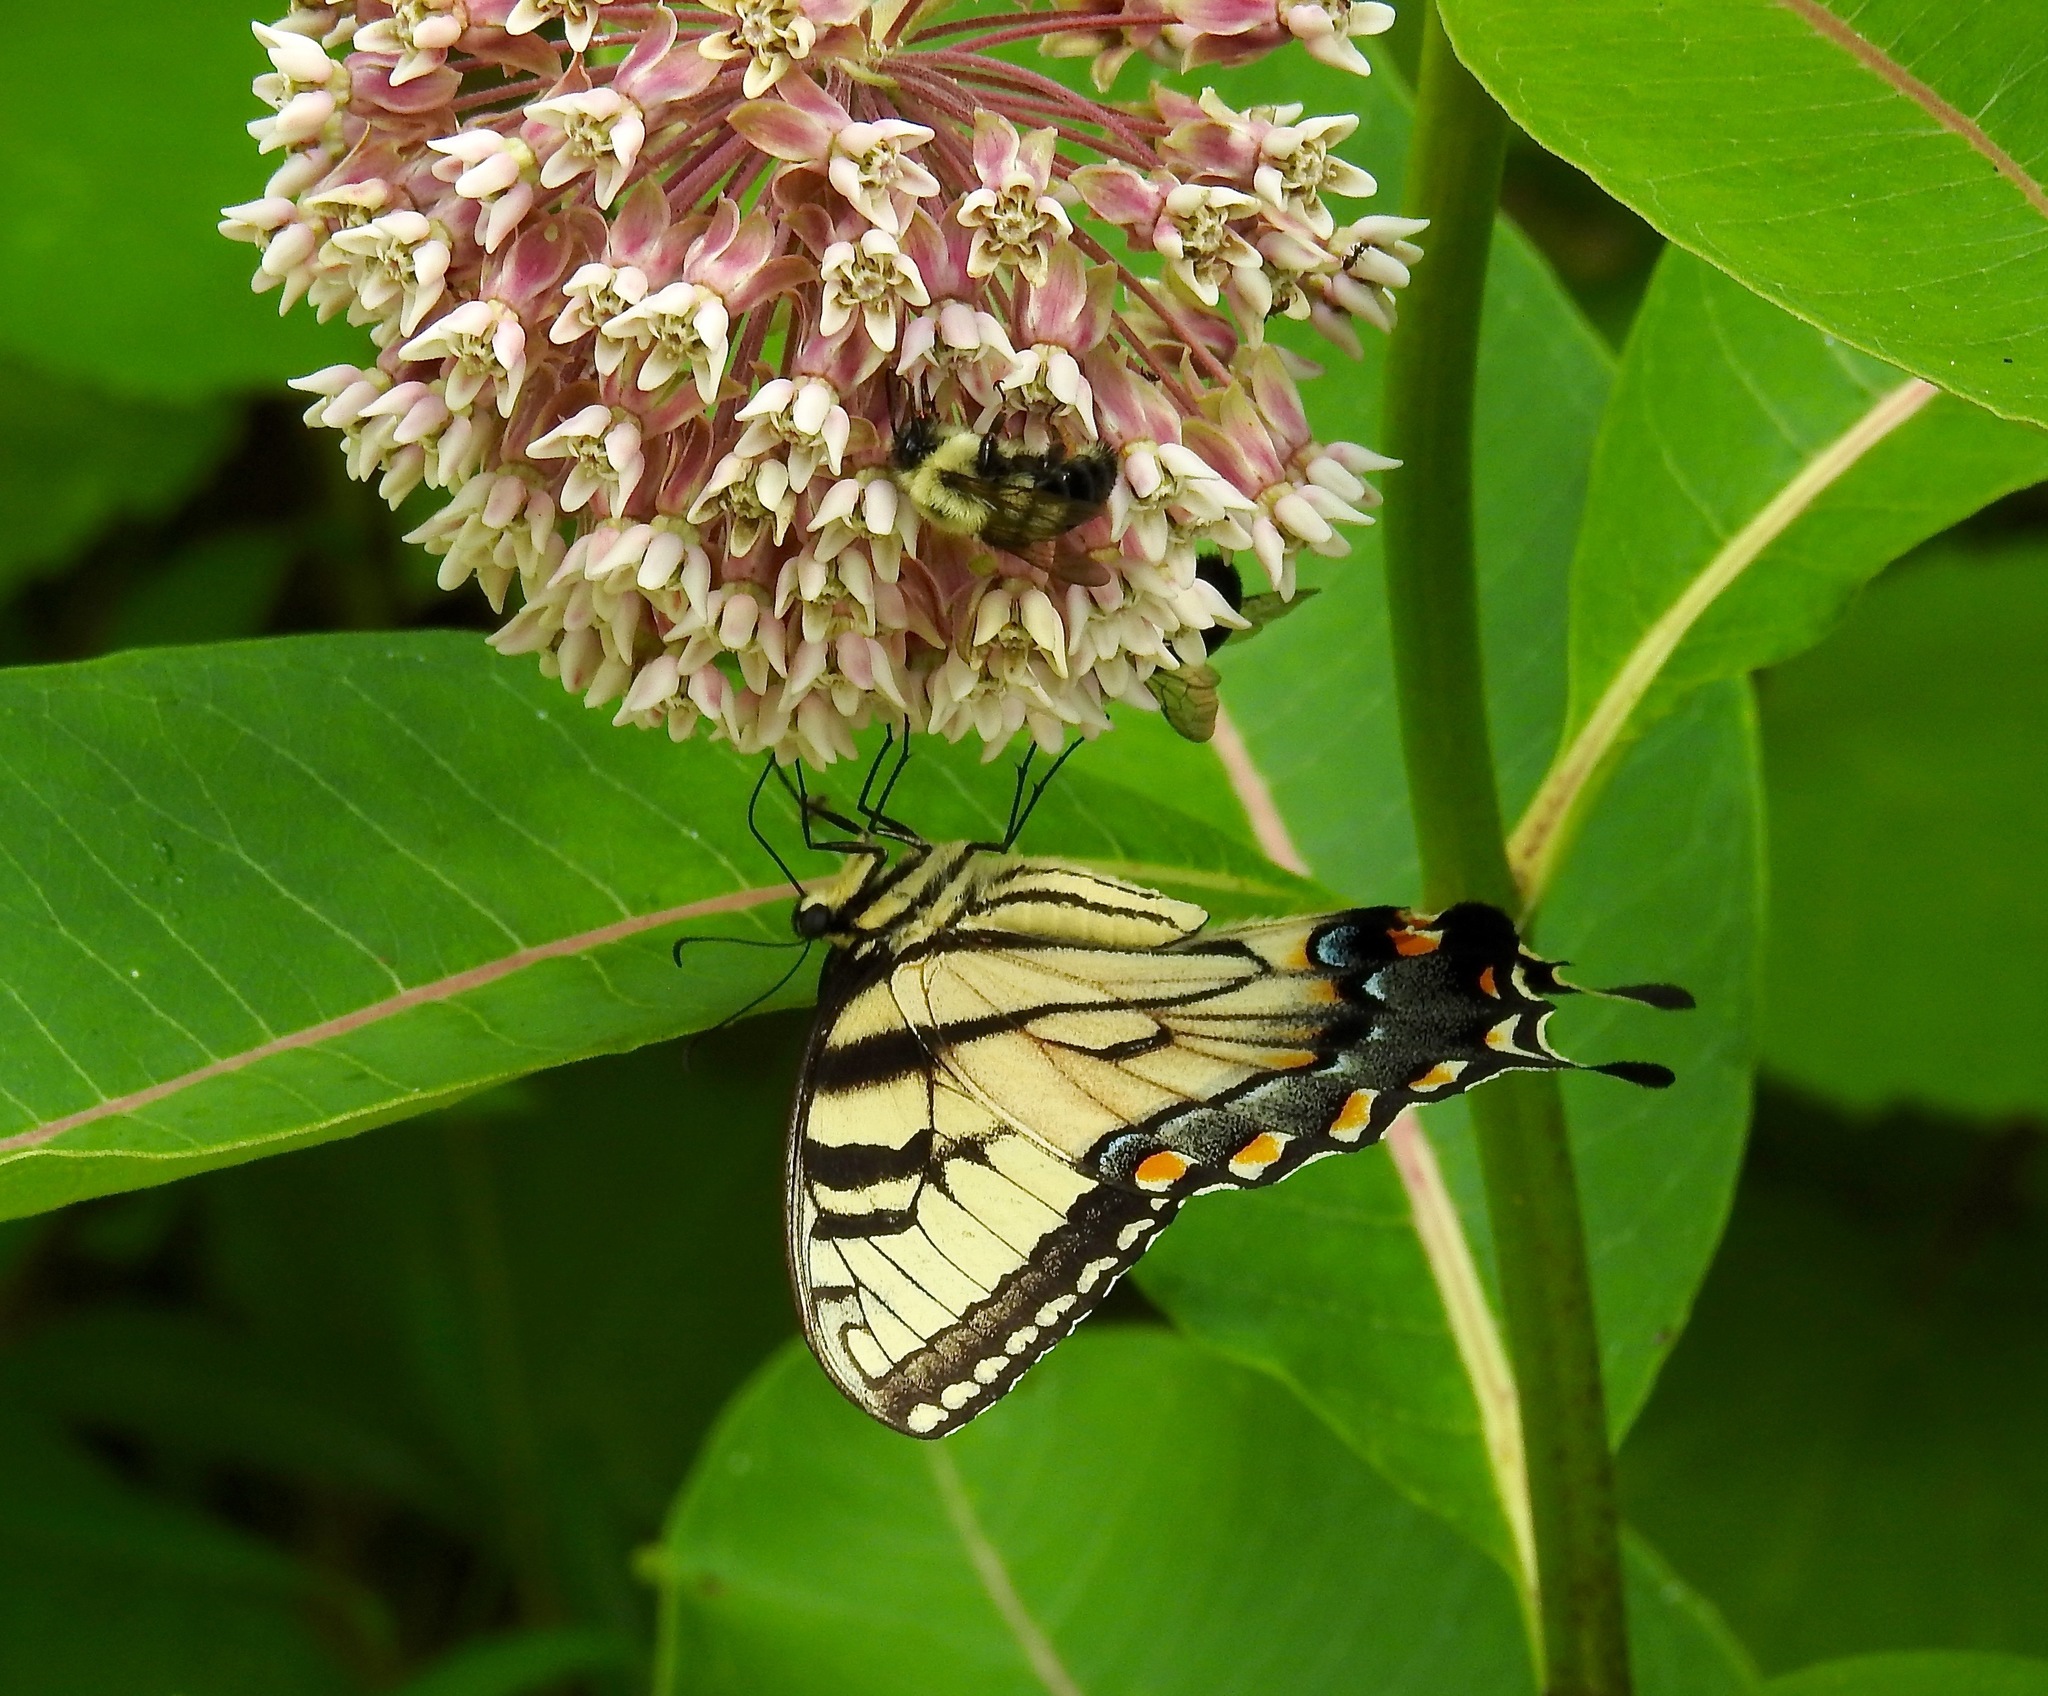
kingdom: Animalia
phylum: Arthropoda
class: Insecta
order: Lepidoptera
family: Papilionidae
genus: Papilio
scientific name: Papilio glaucus
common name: Tiger swallowtail
